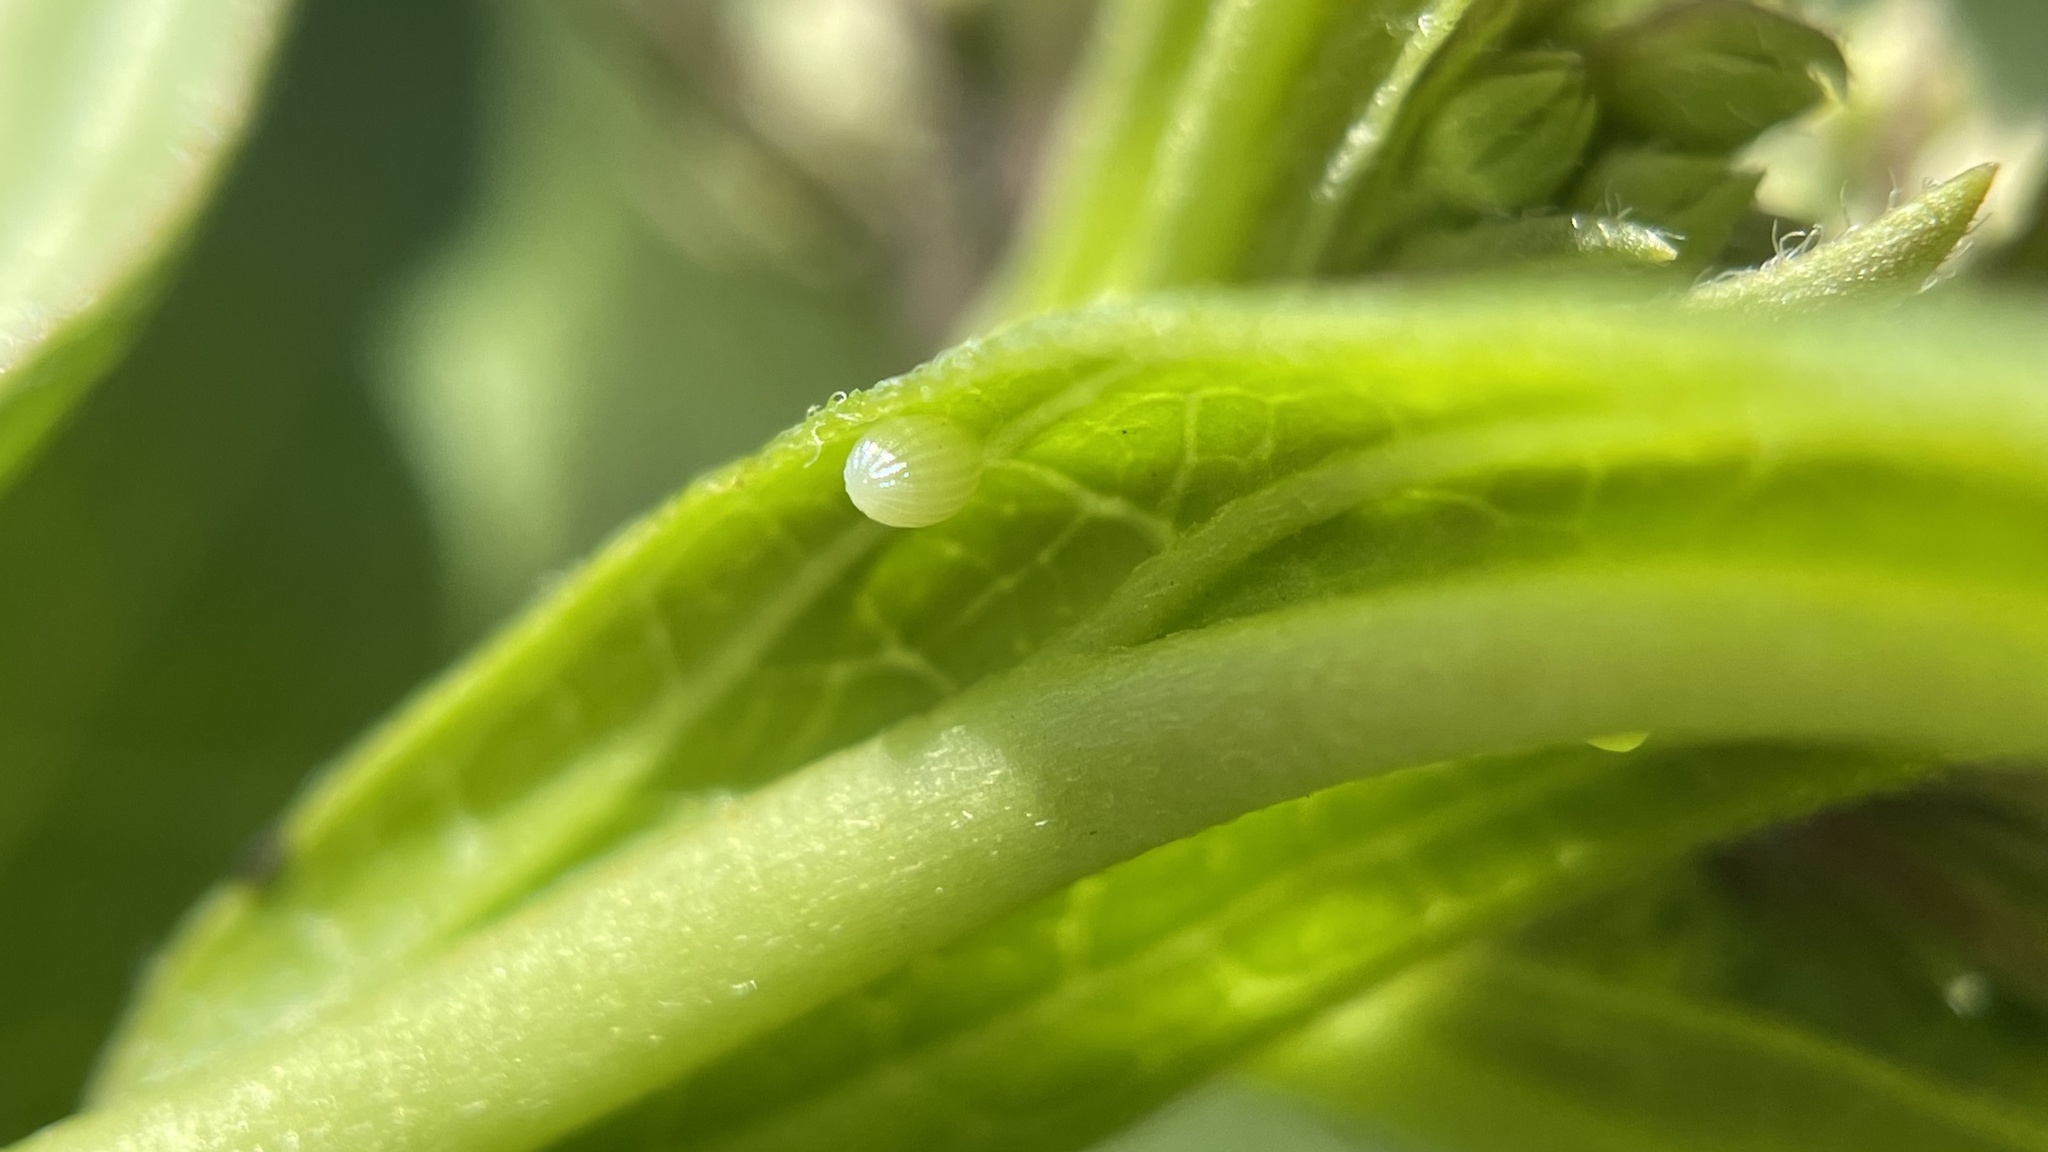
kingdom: Animalia
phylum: Arthropoda
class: Insecta
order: Lepidoptera
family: Nymphalidae
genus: Danaus
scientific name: Danaus plexippus
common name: Monarch
